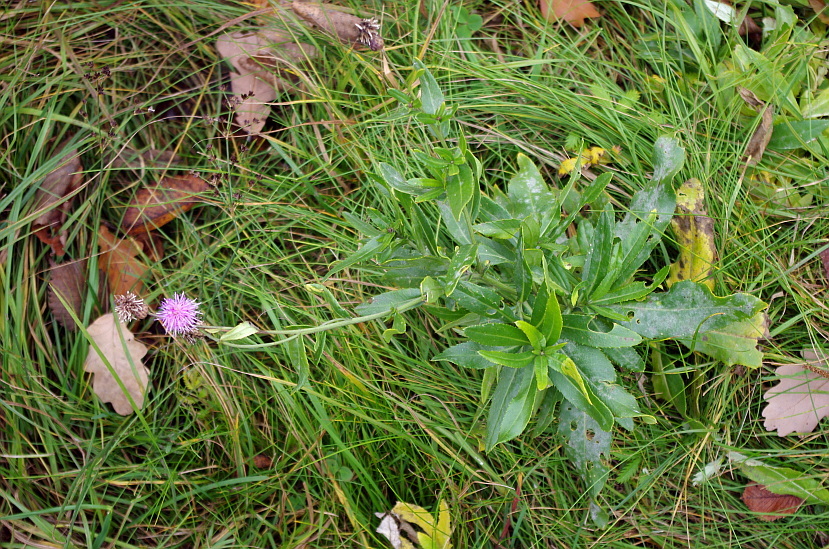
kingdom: Plantae
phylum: Tracheophyta
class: Magnoliopsida
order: Asterales
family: Asteraceae
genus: Cirsium
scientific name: Cirsium arvense
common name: Creeping thistle
